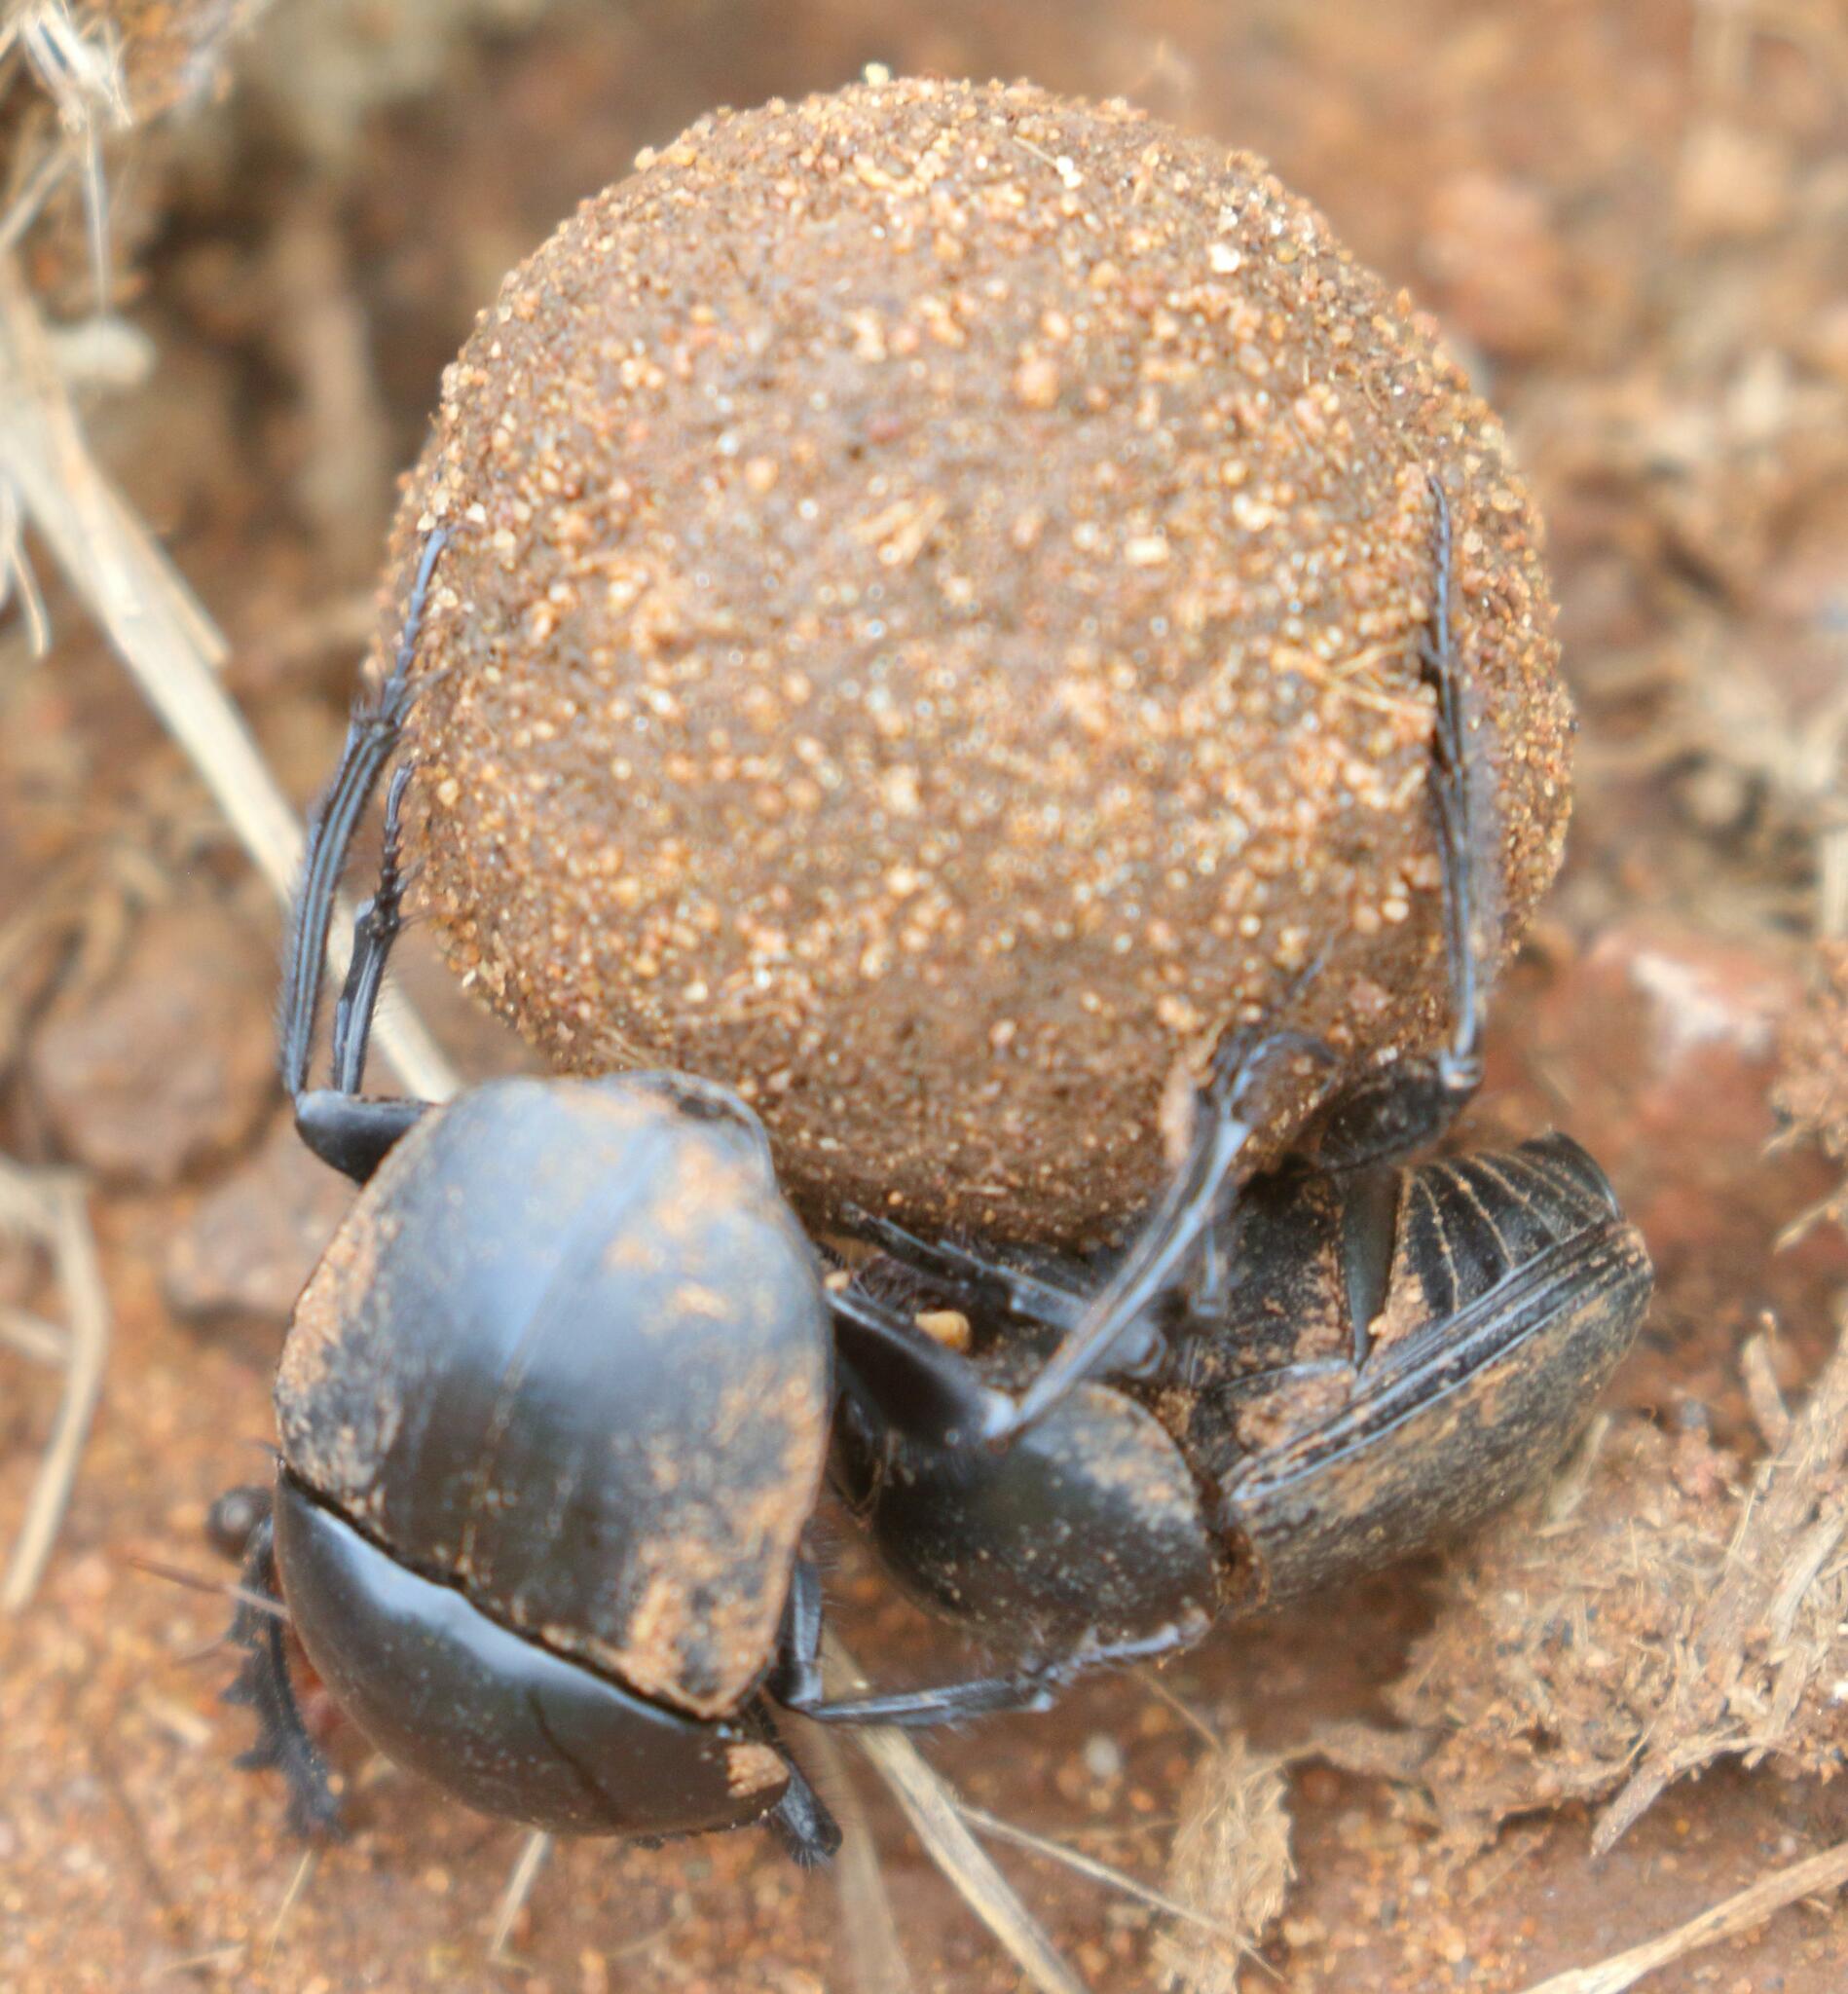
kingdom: Animalia
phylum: Arthropoda
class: Insecta
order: Coleoptera
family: Scarabaeidae
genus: Scarabaeus
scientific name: Scarabaeus rusticus
